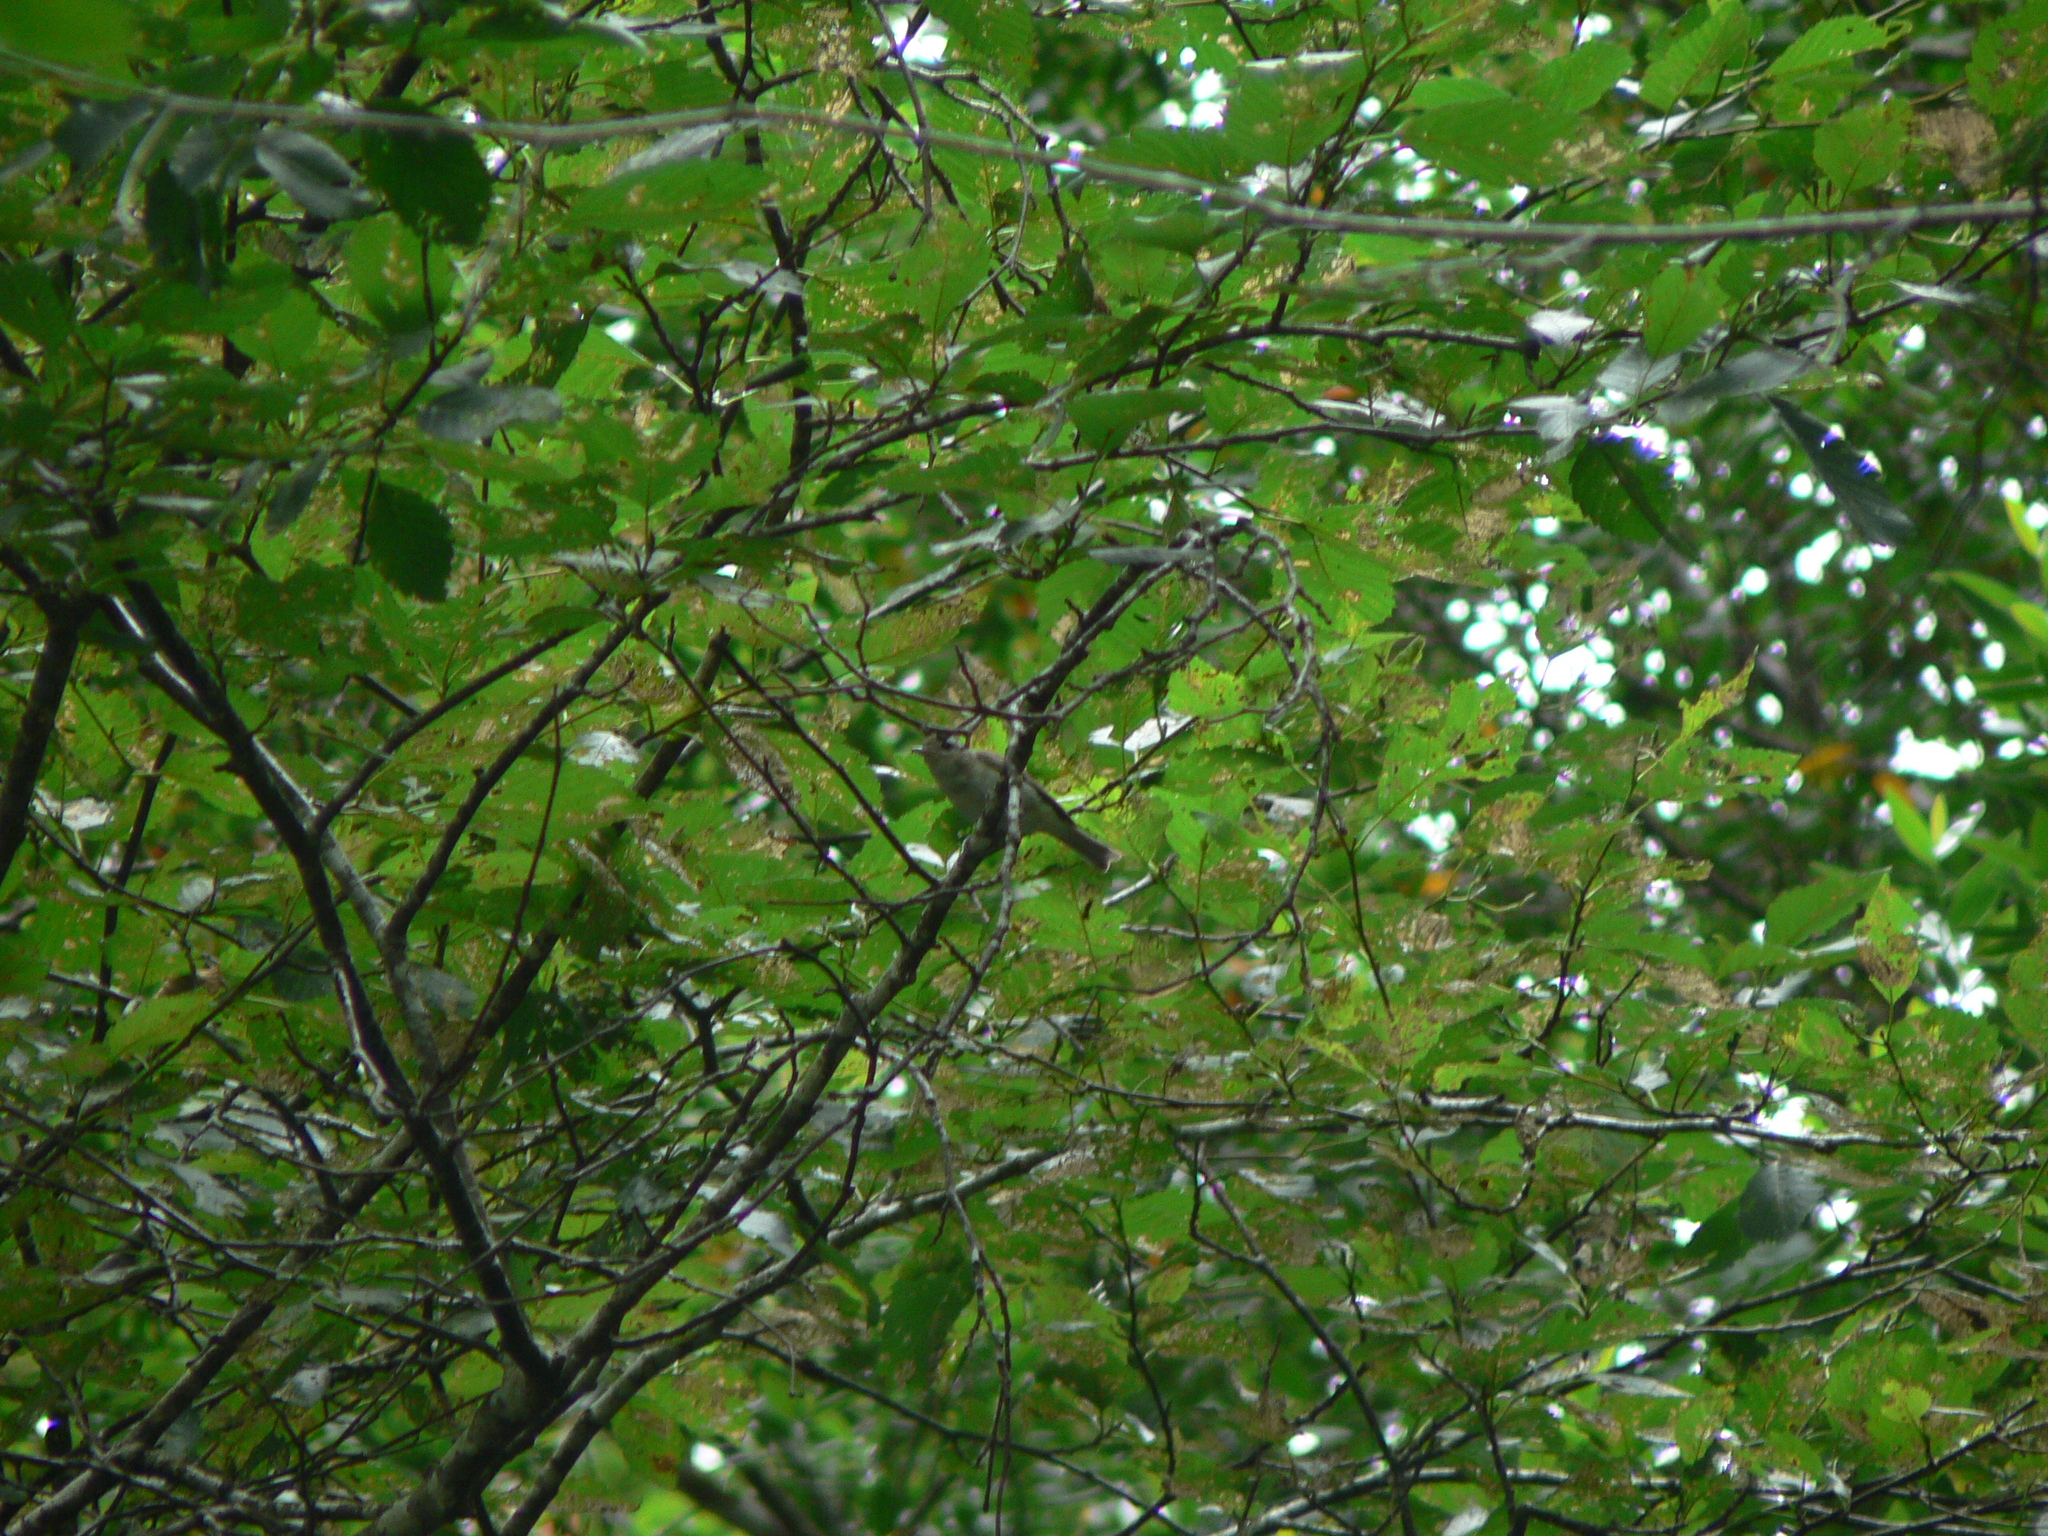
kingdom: Animalia
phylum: Chordata
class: Aves
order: Passeriformes
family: Vireonidae
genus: Vireo
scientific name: Vireo gilvus
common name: Warbling vireo
